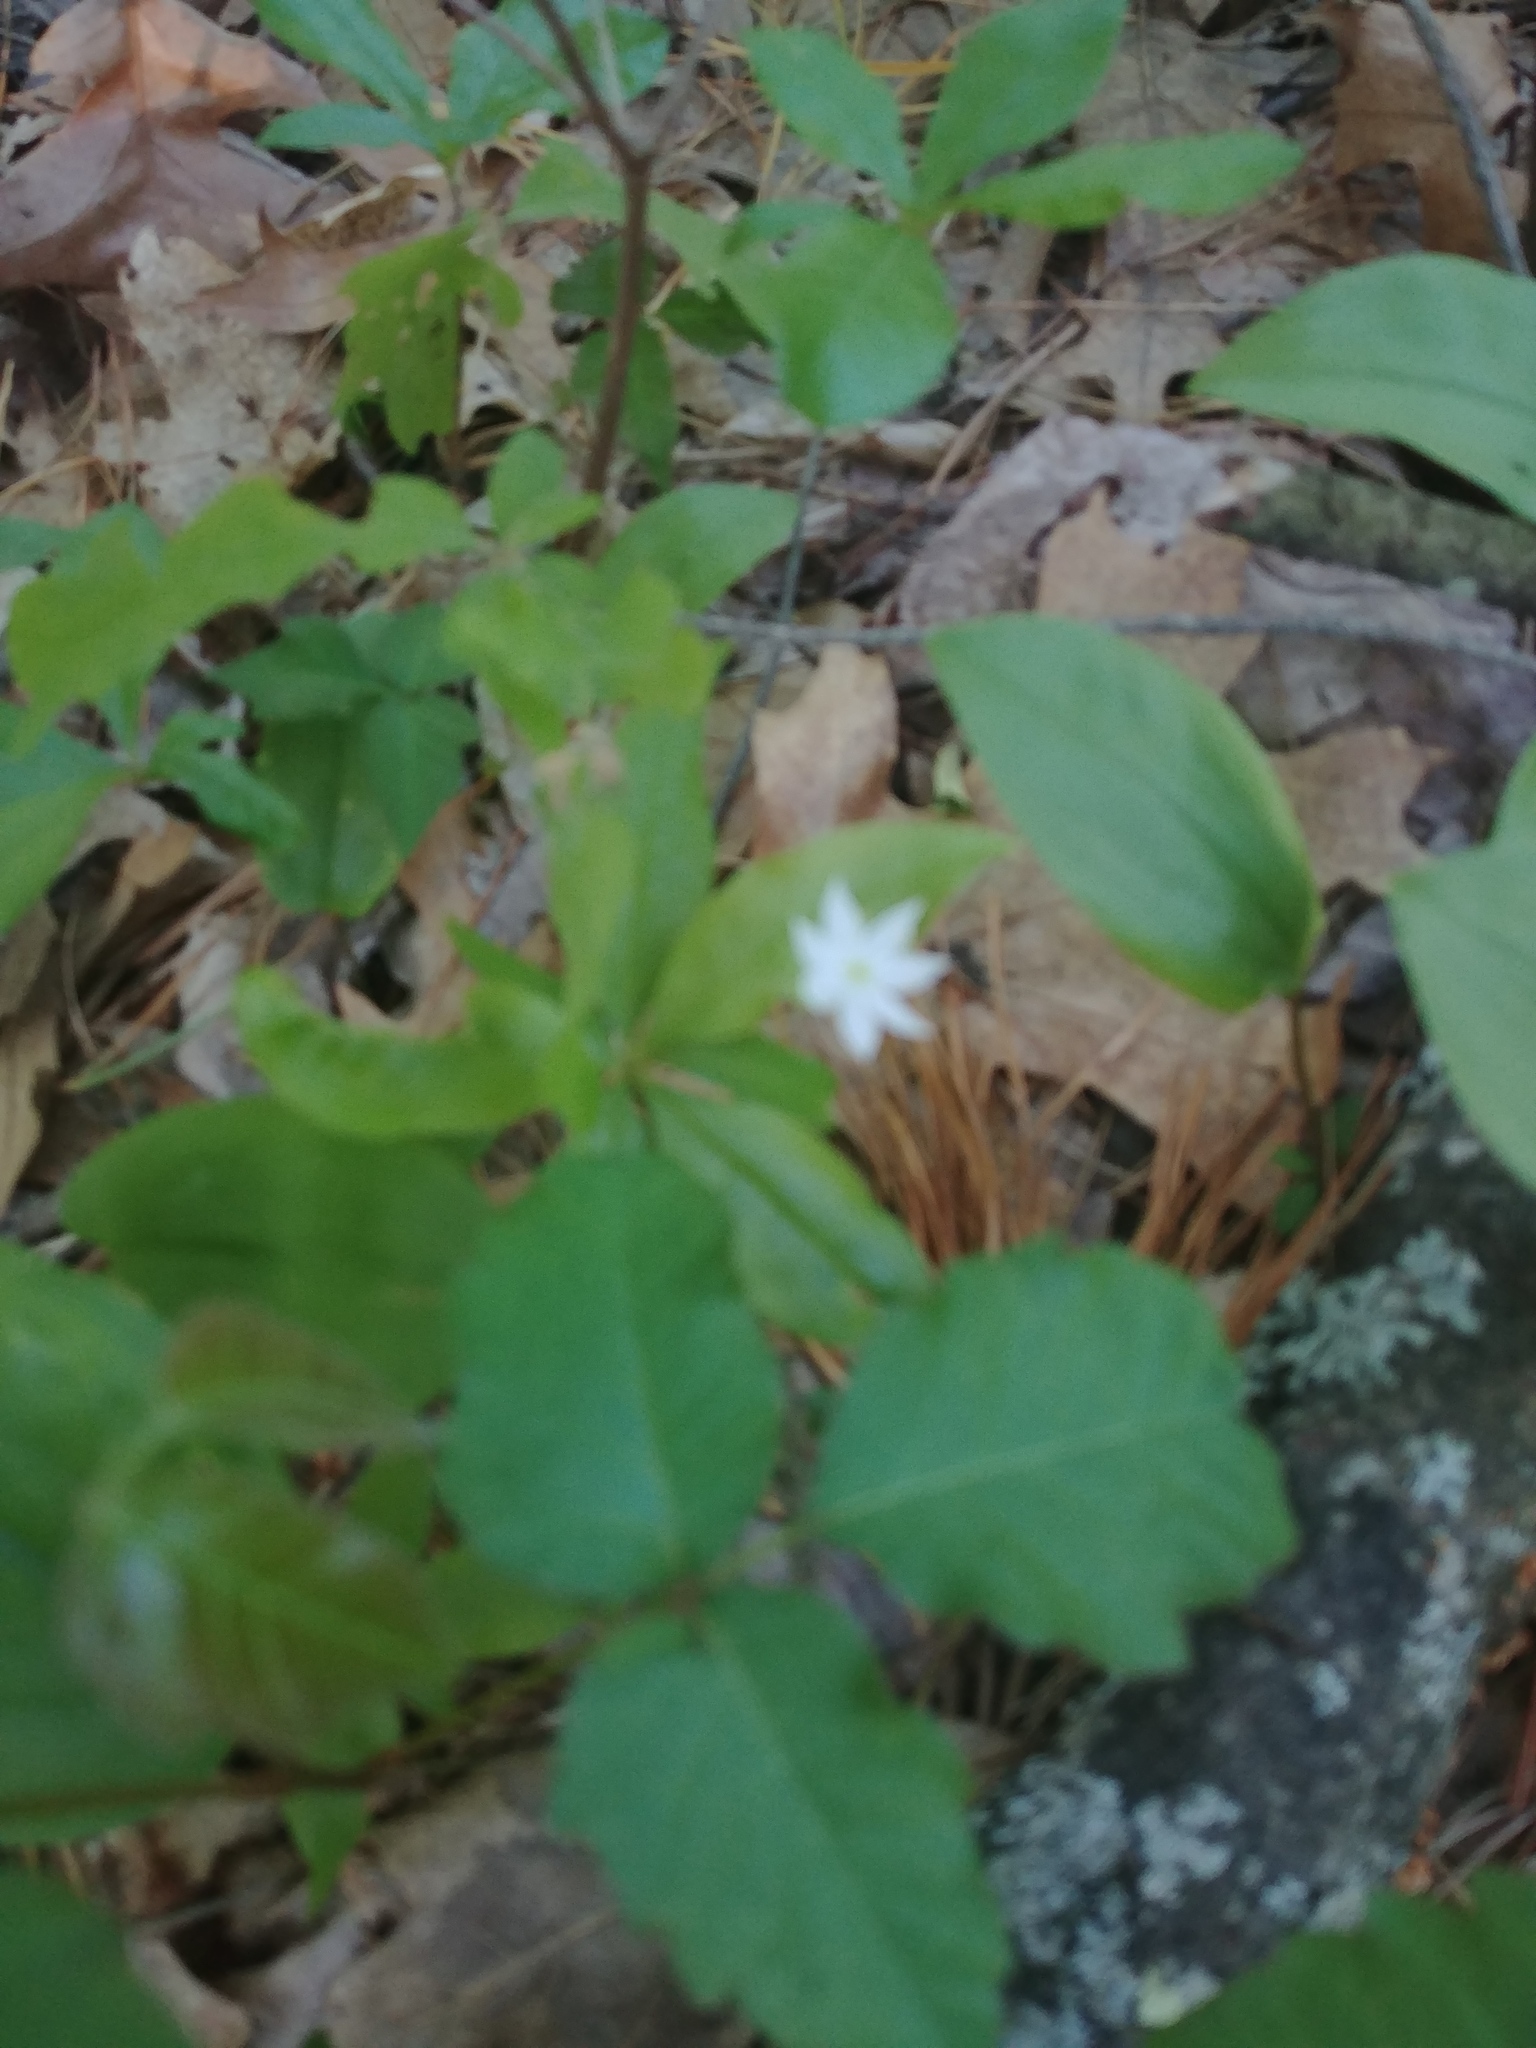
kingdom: Plantae
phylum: Tracheophyta
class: Magnoliopsida
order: Ericales
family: Primulaceae
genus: Lysimachia
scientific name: Lysimachia borealis
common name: American starflower
